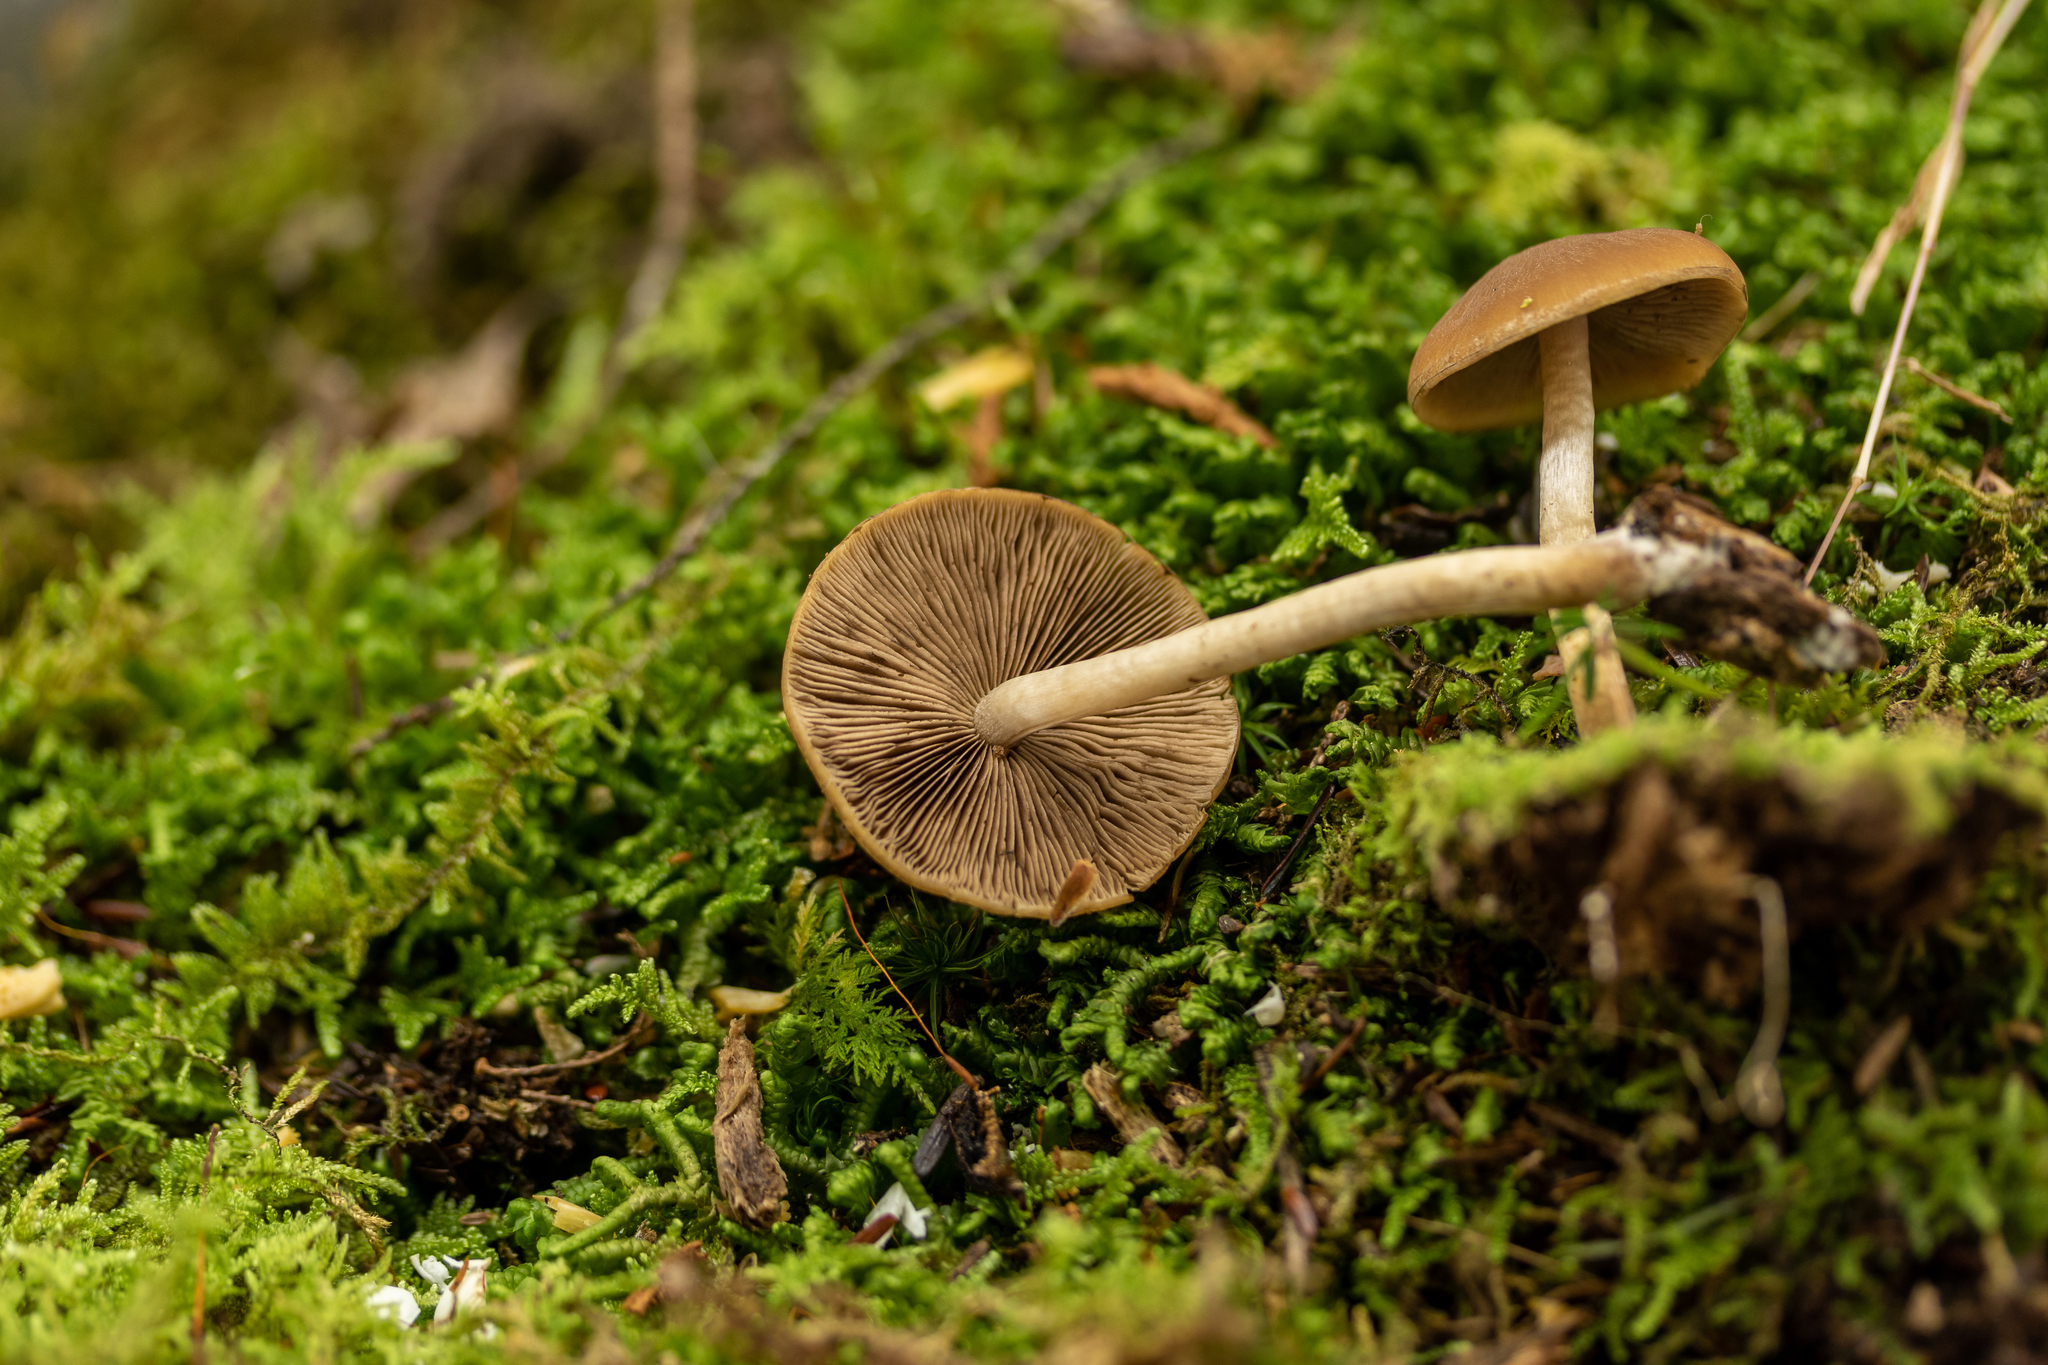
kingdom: Fungi
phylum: Basidiomycota
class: Agaricomycetes
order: Agaricales
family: Psathyrellaceae
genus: Psathyrella
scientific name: Psathyrella carinthiaca
